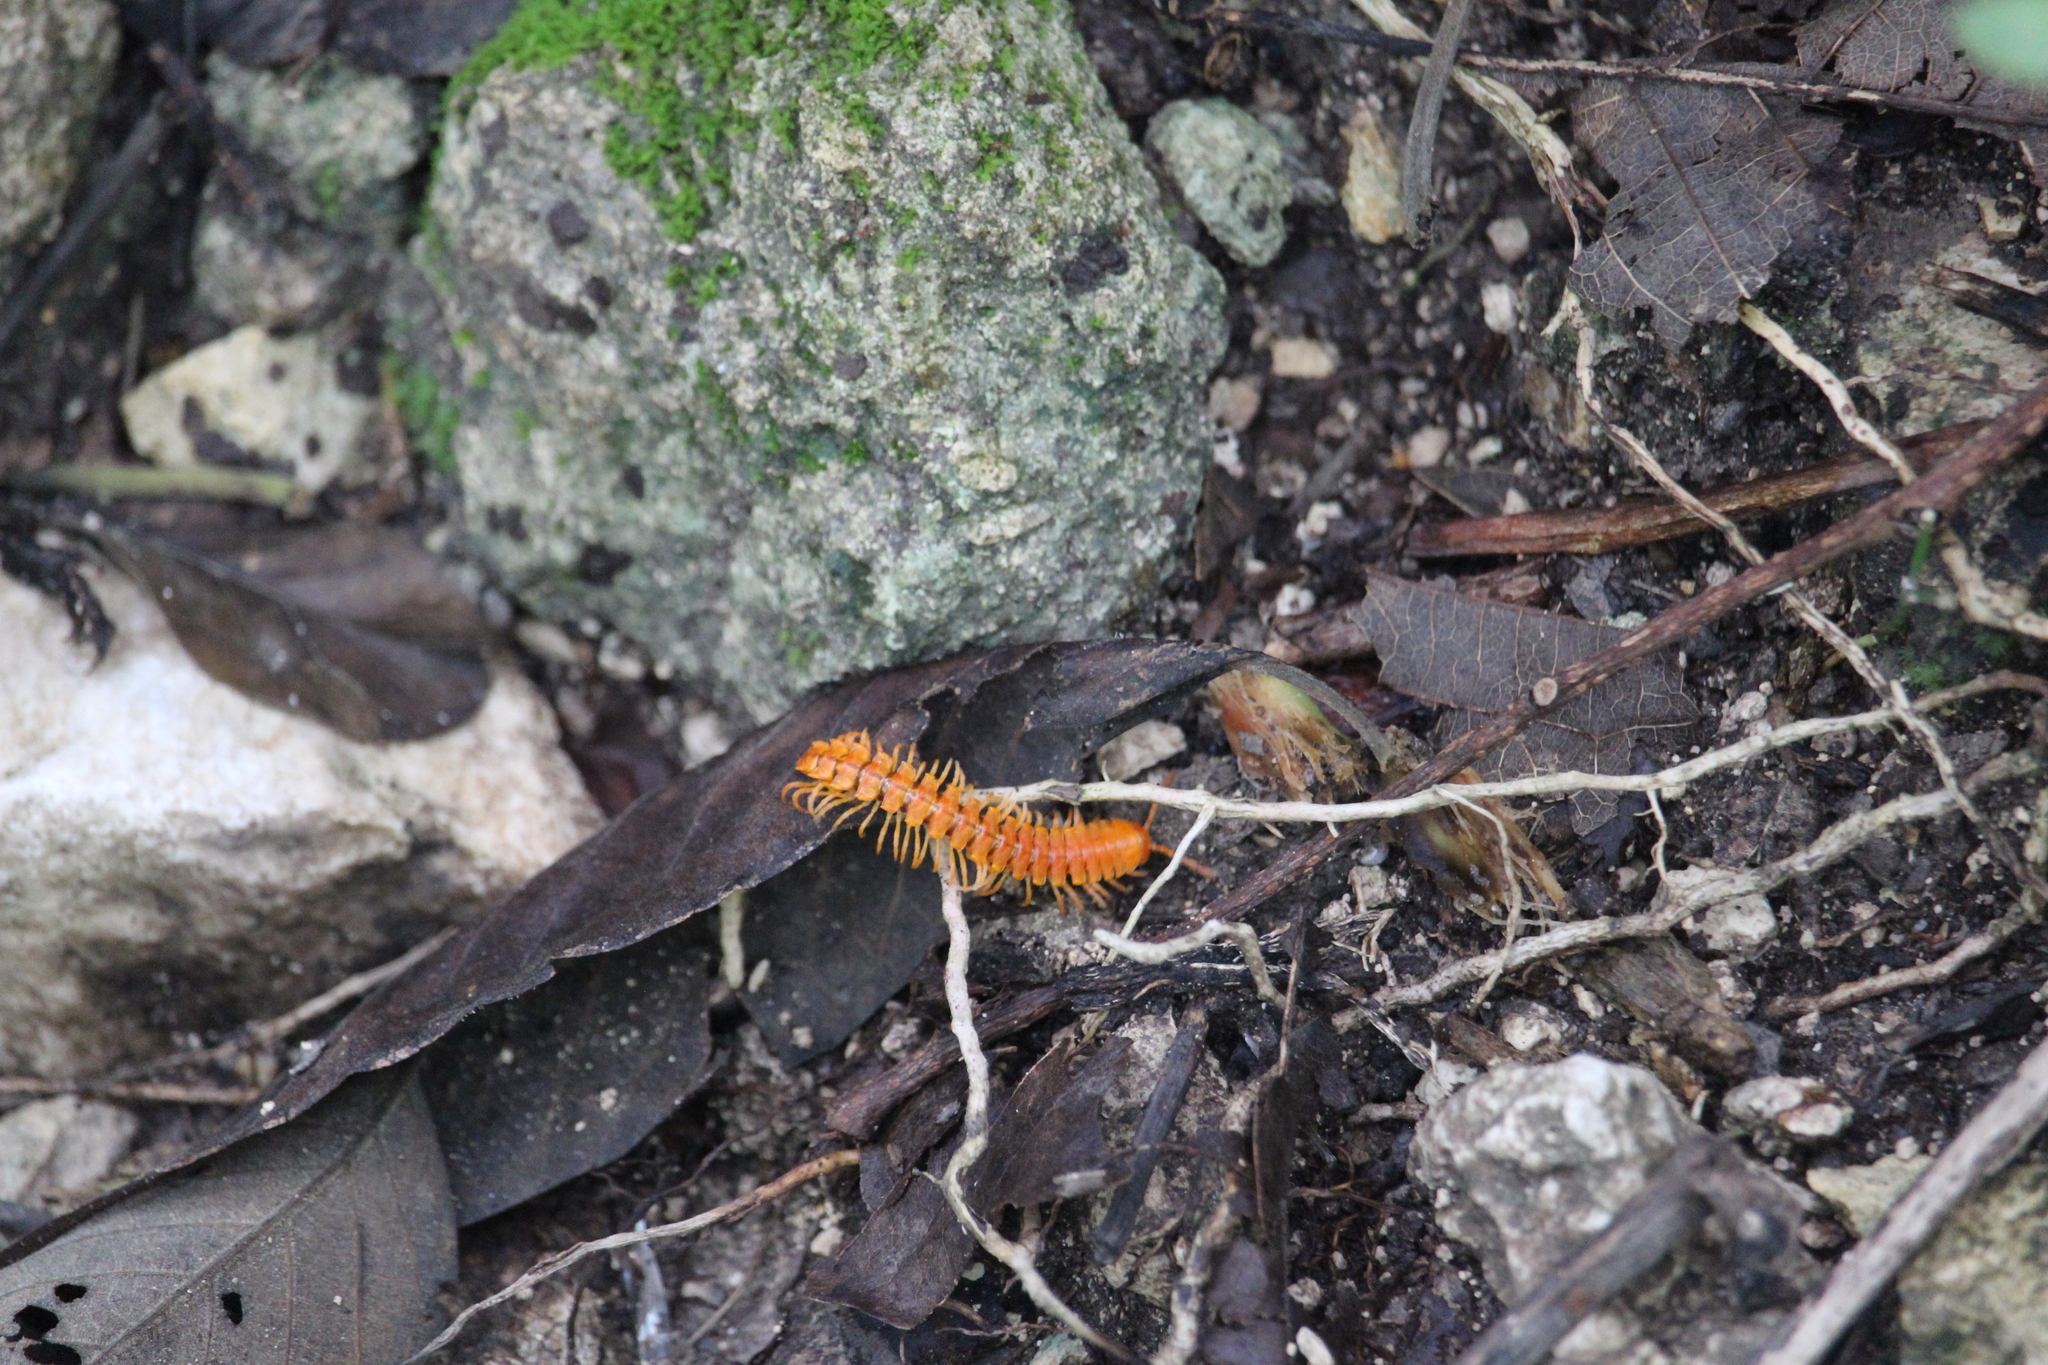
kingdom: Animalia
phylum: Arthropoda
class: Diplopoda
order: Polydesmida
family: Rhachodesmidae
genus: Aceratophallus
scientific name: Aceratophallus maya
